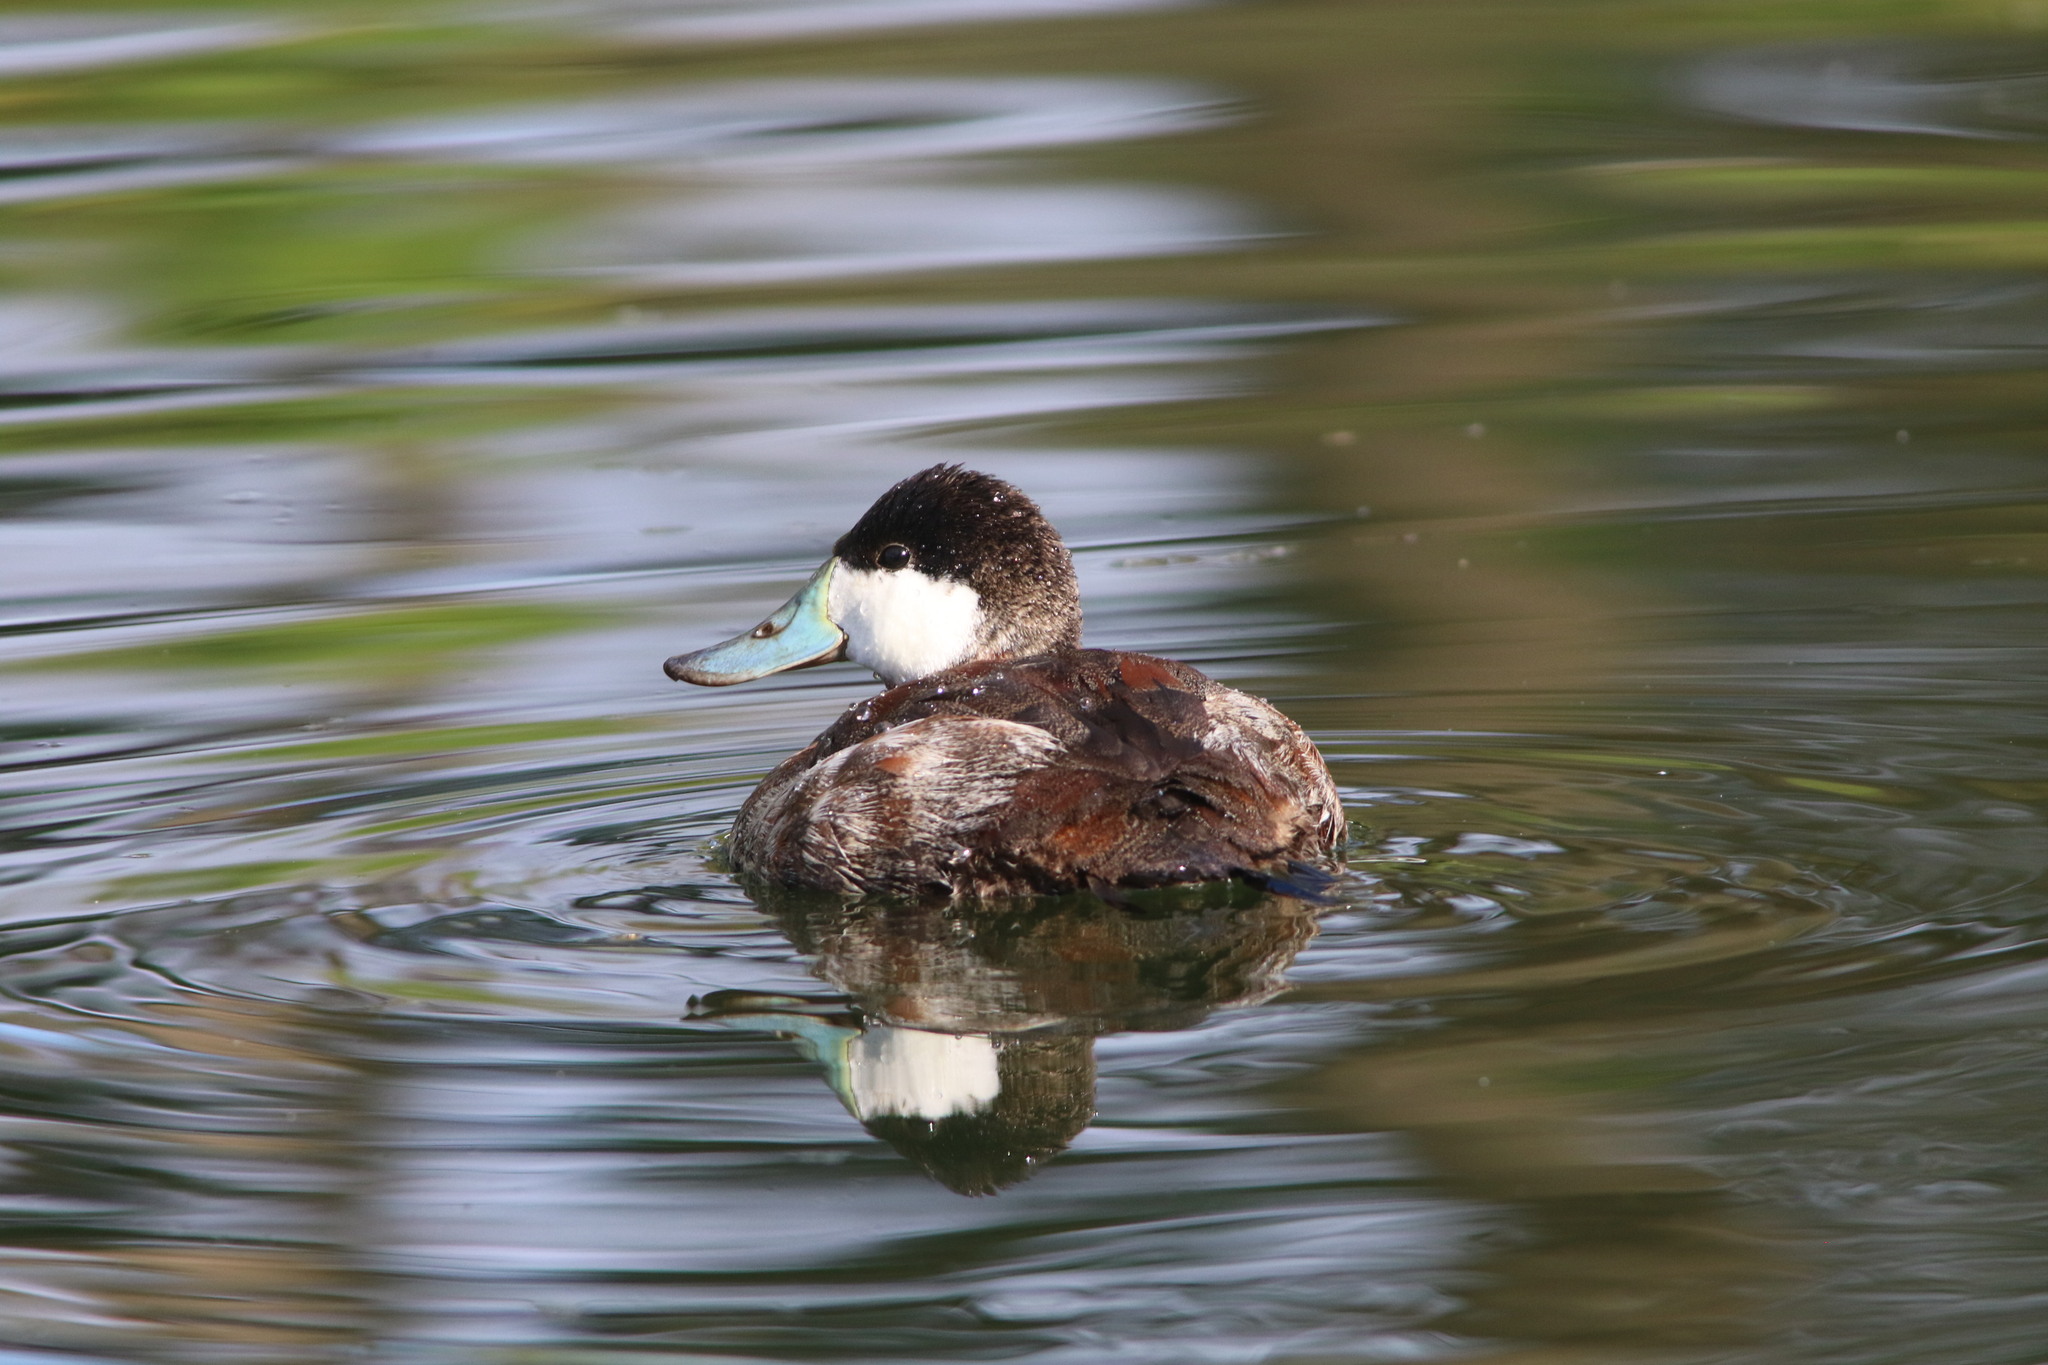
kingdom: Animalia
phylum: Chordata
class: Aves
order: Anseriformes
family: Anatidae
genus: Oxyura
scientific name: Oxyura jamaicensis
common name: Ruddy duck
